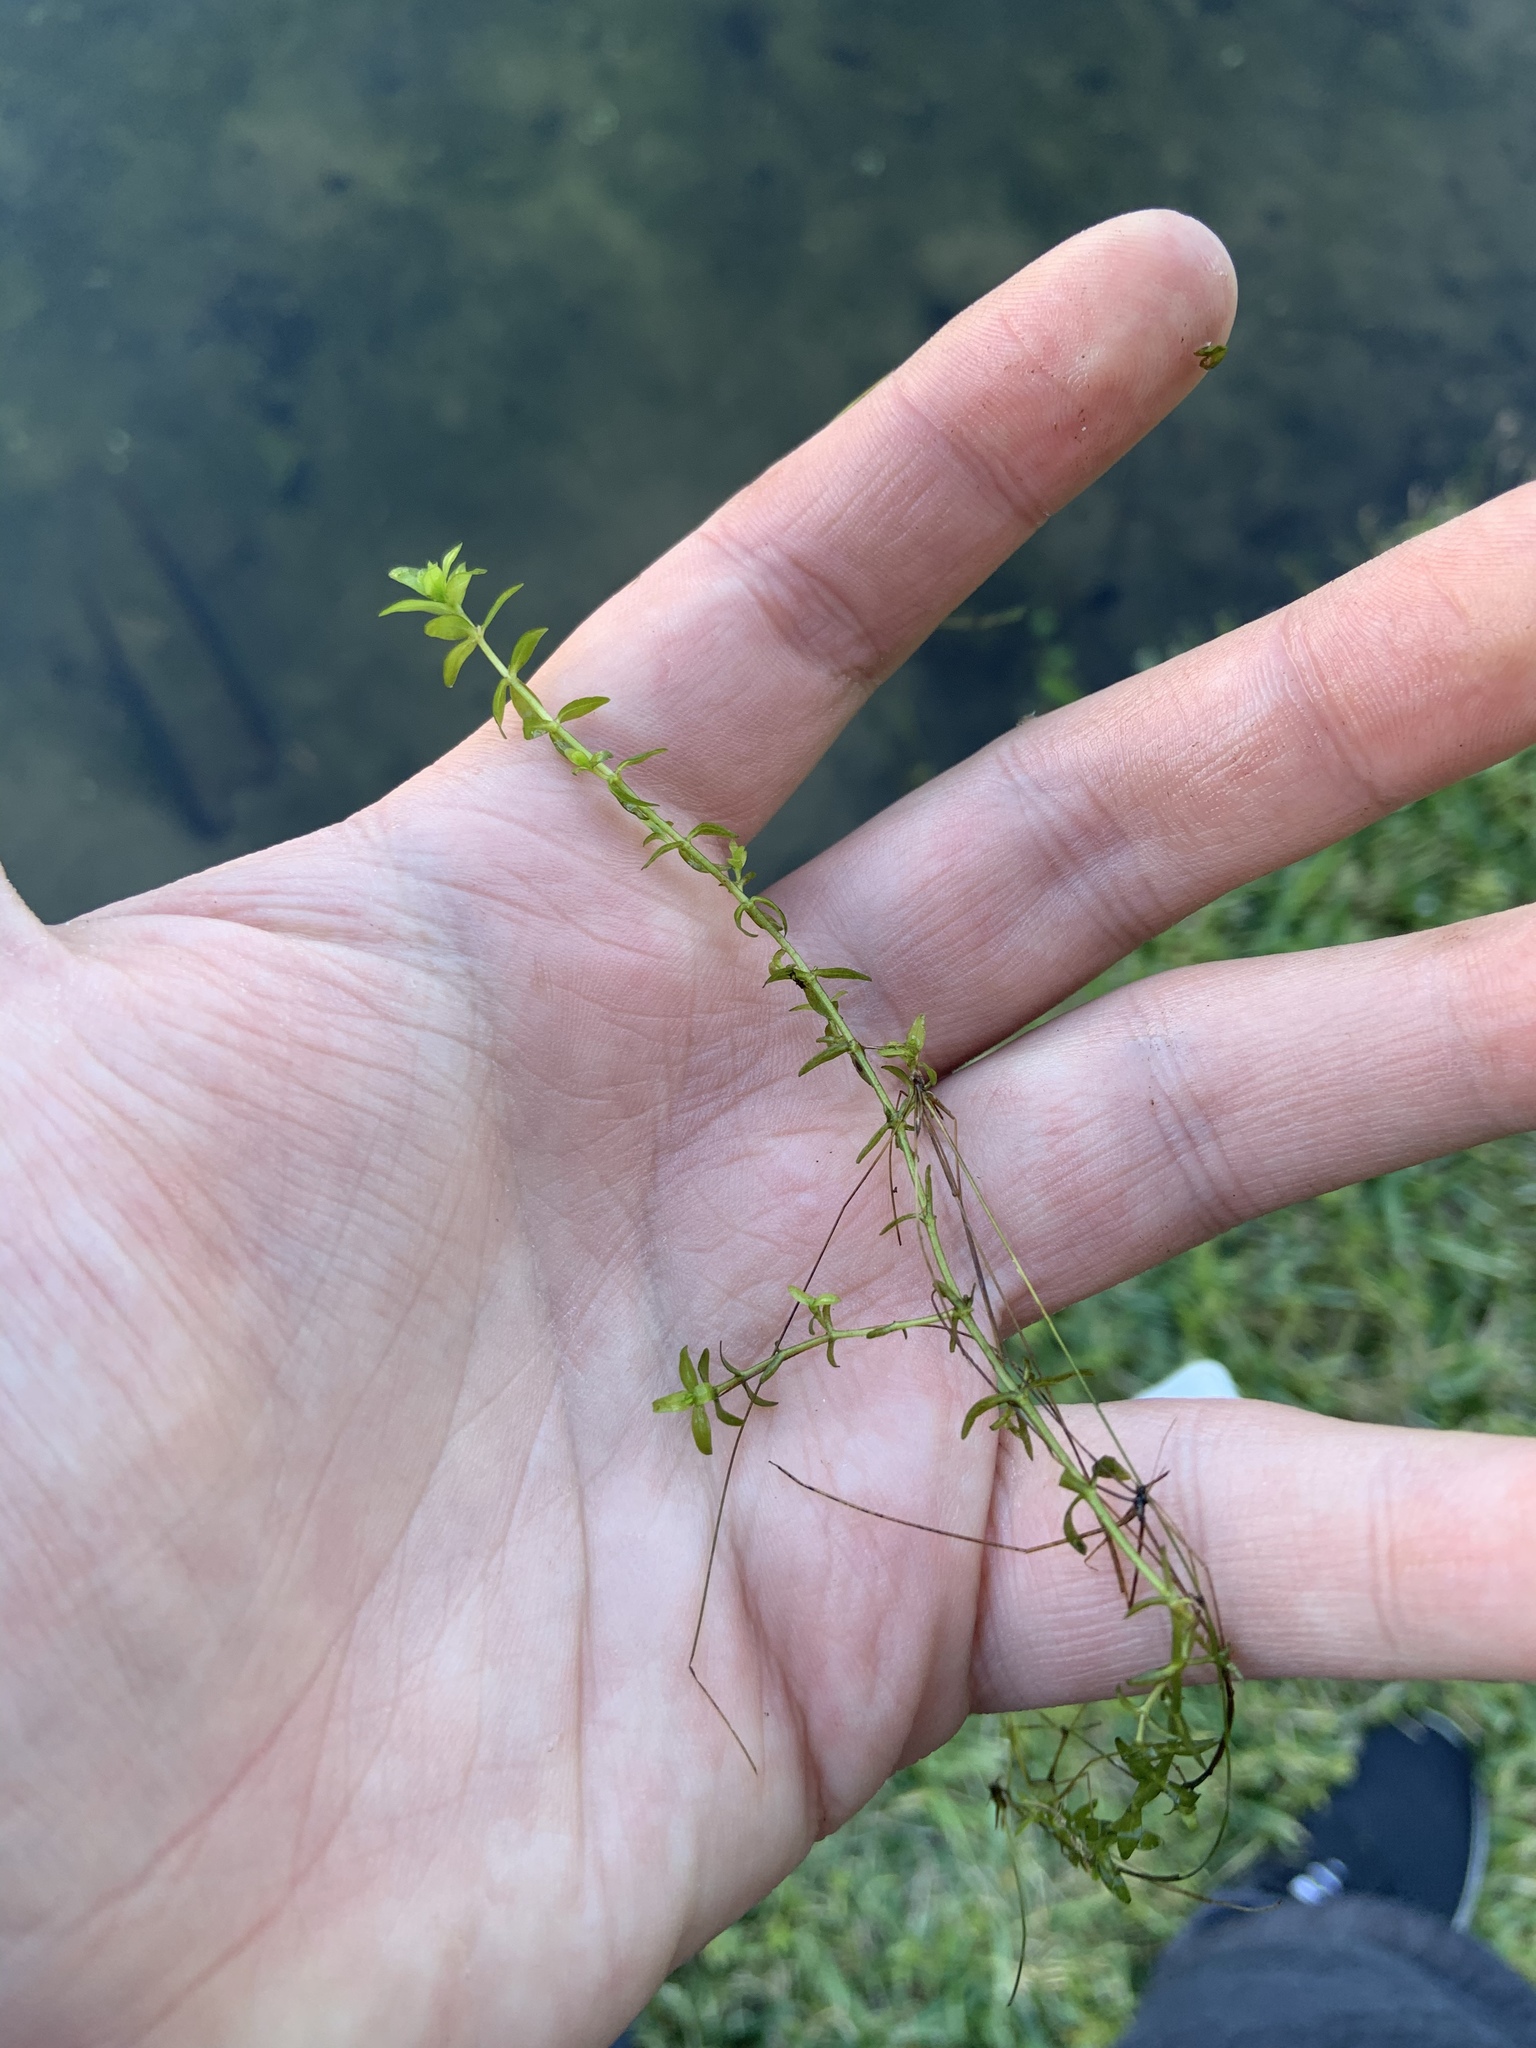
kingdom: Plantae
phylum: Tracheophyta
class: Magnoliopsida
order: Lamiales
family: Linderniaceae
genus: Micranthemum
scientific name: Micranthemum glomeratum
